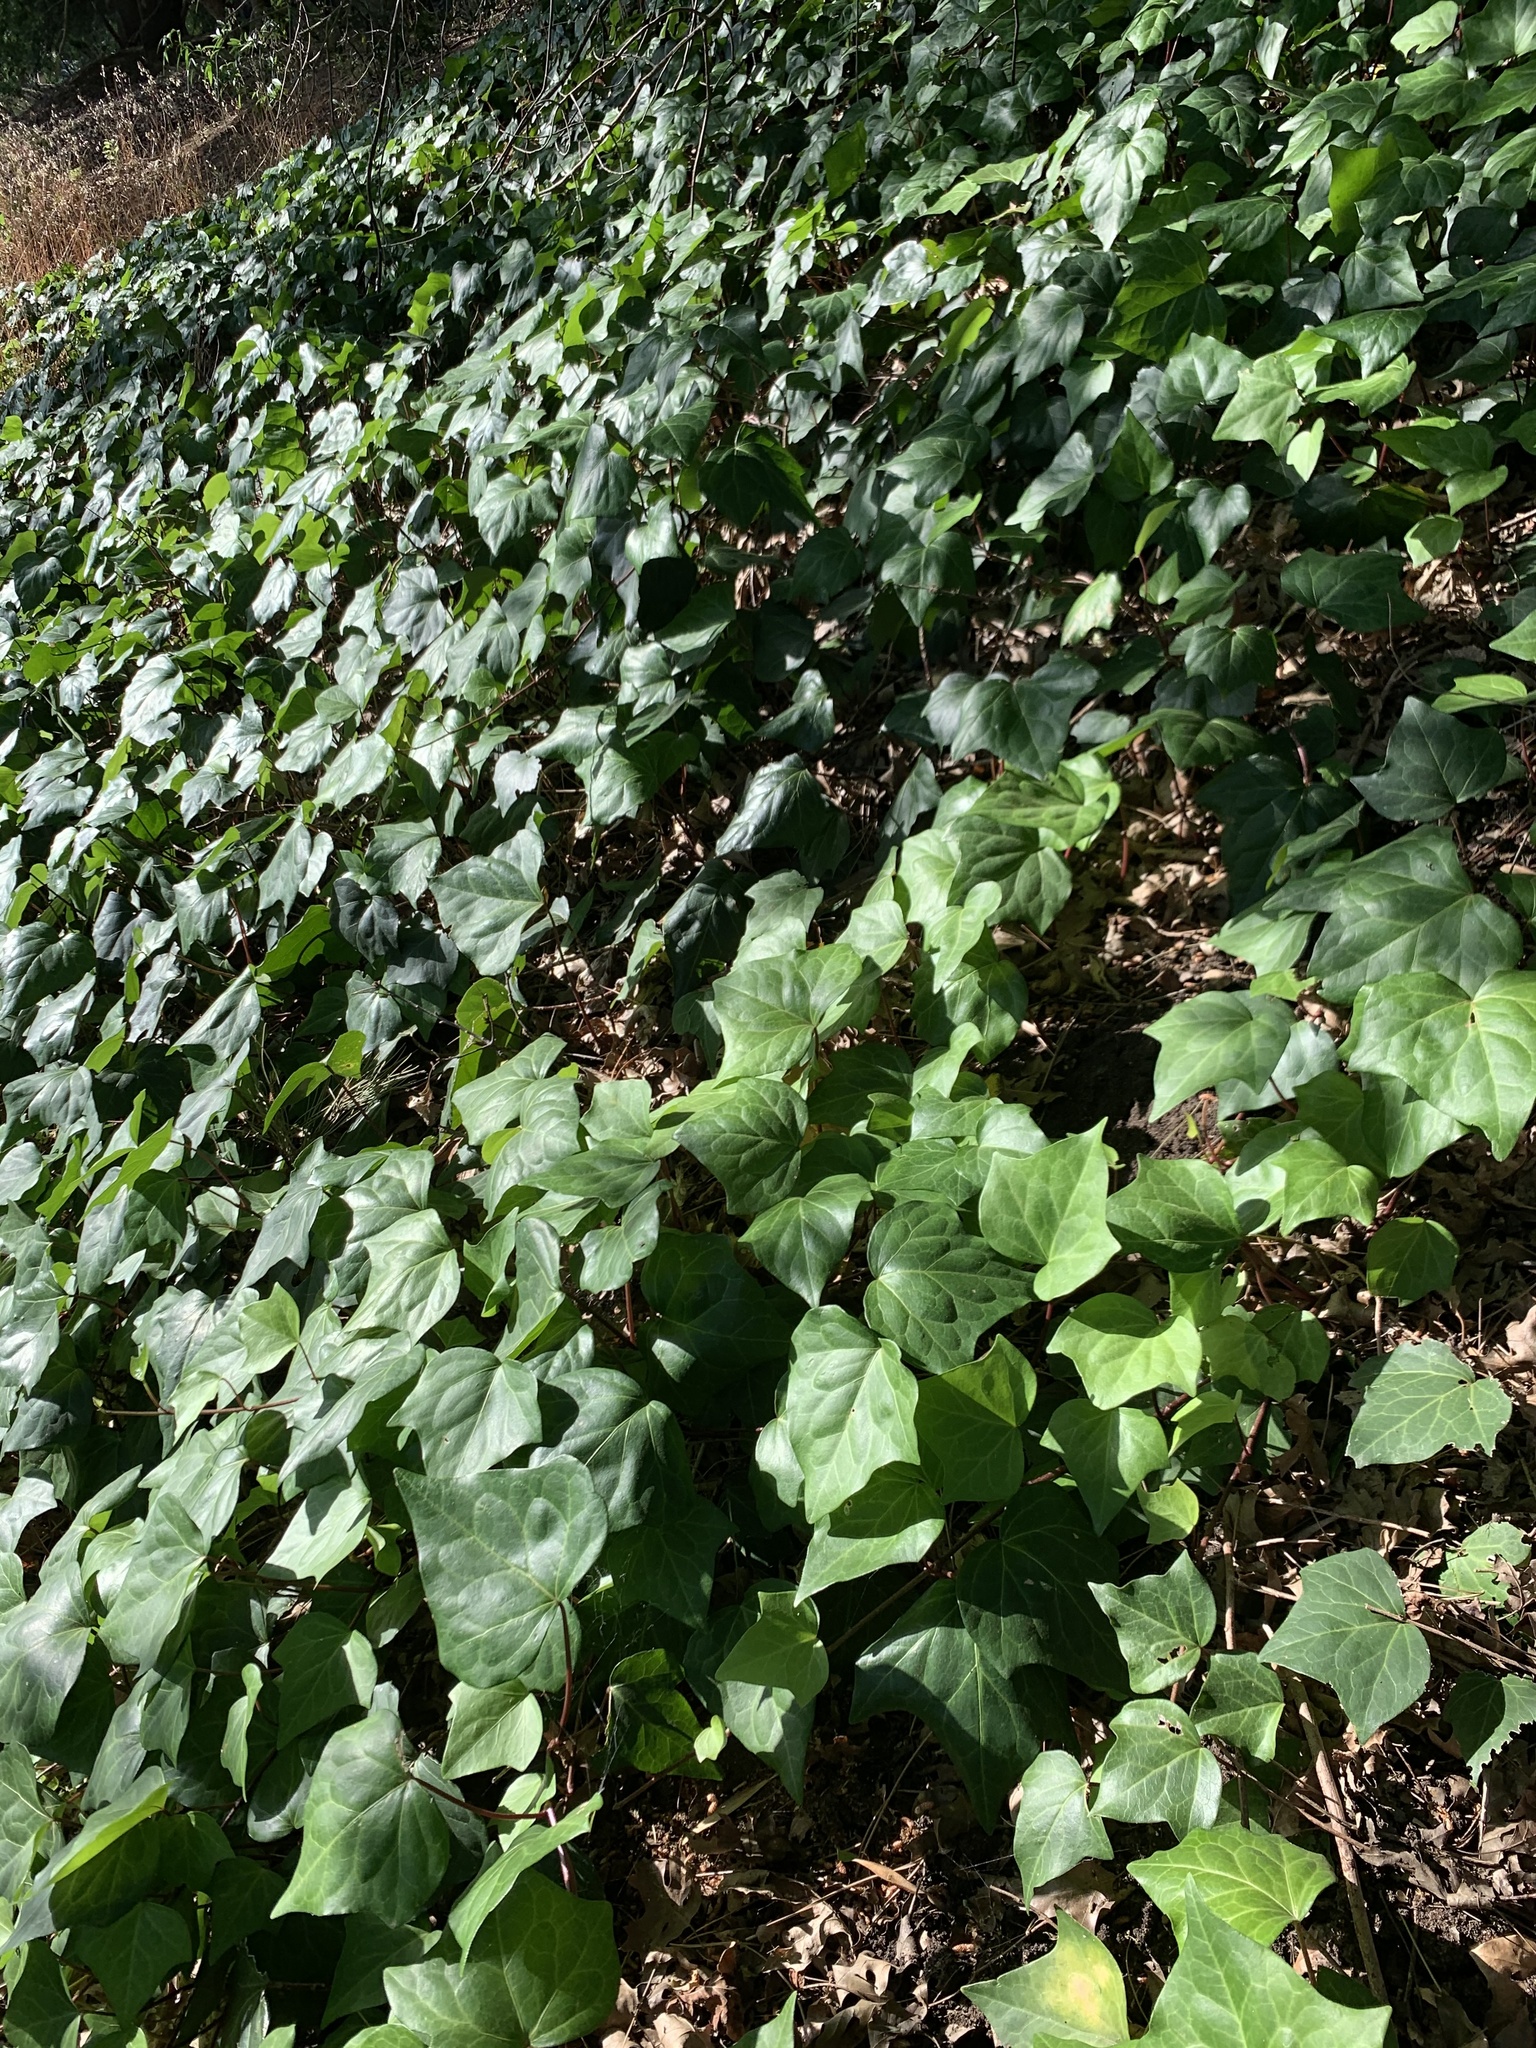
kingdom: Plantae
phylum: Tracheophyta
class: Magnoliopsida
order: Apiales
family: Araliaceae
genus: Hedera
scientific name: Hedera canariensis
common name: Madeira ivy
